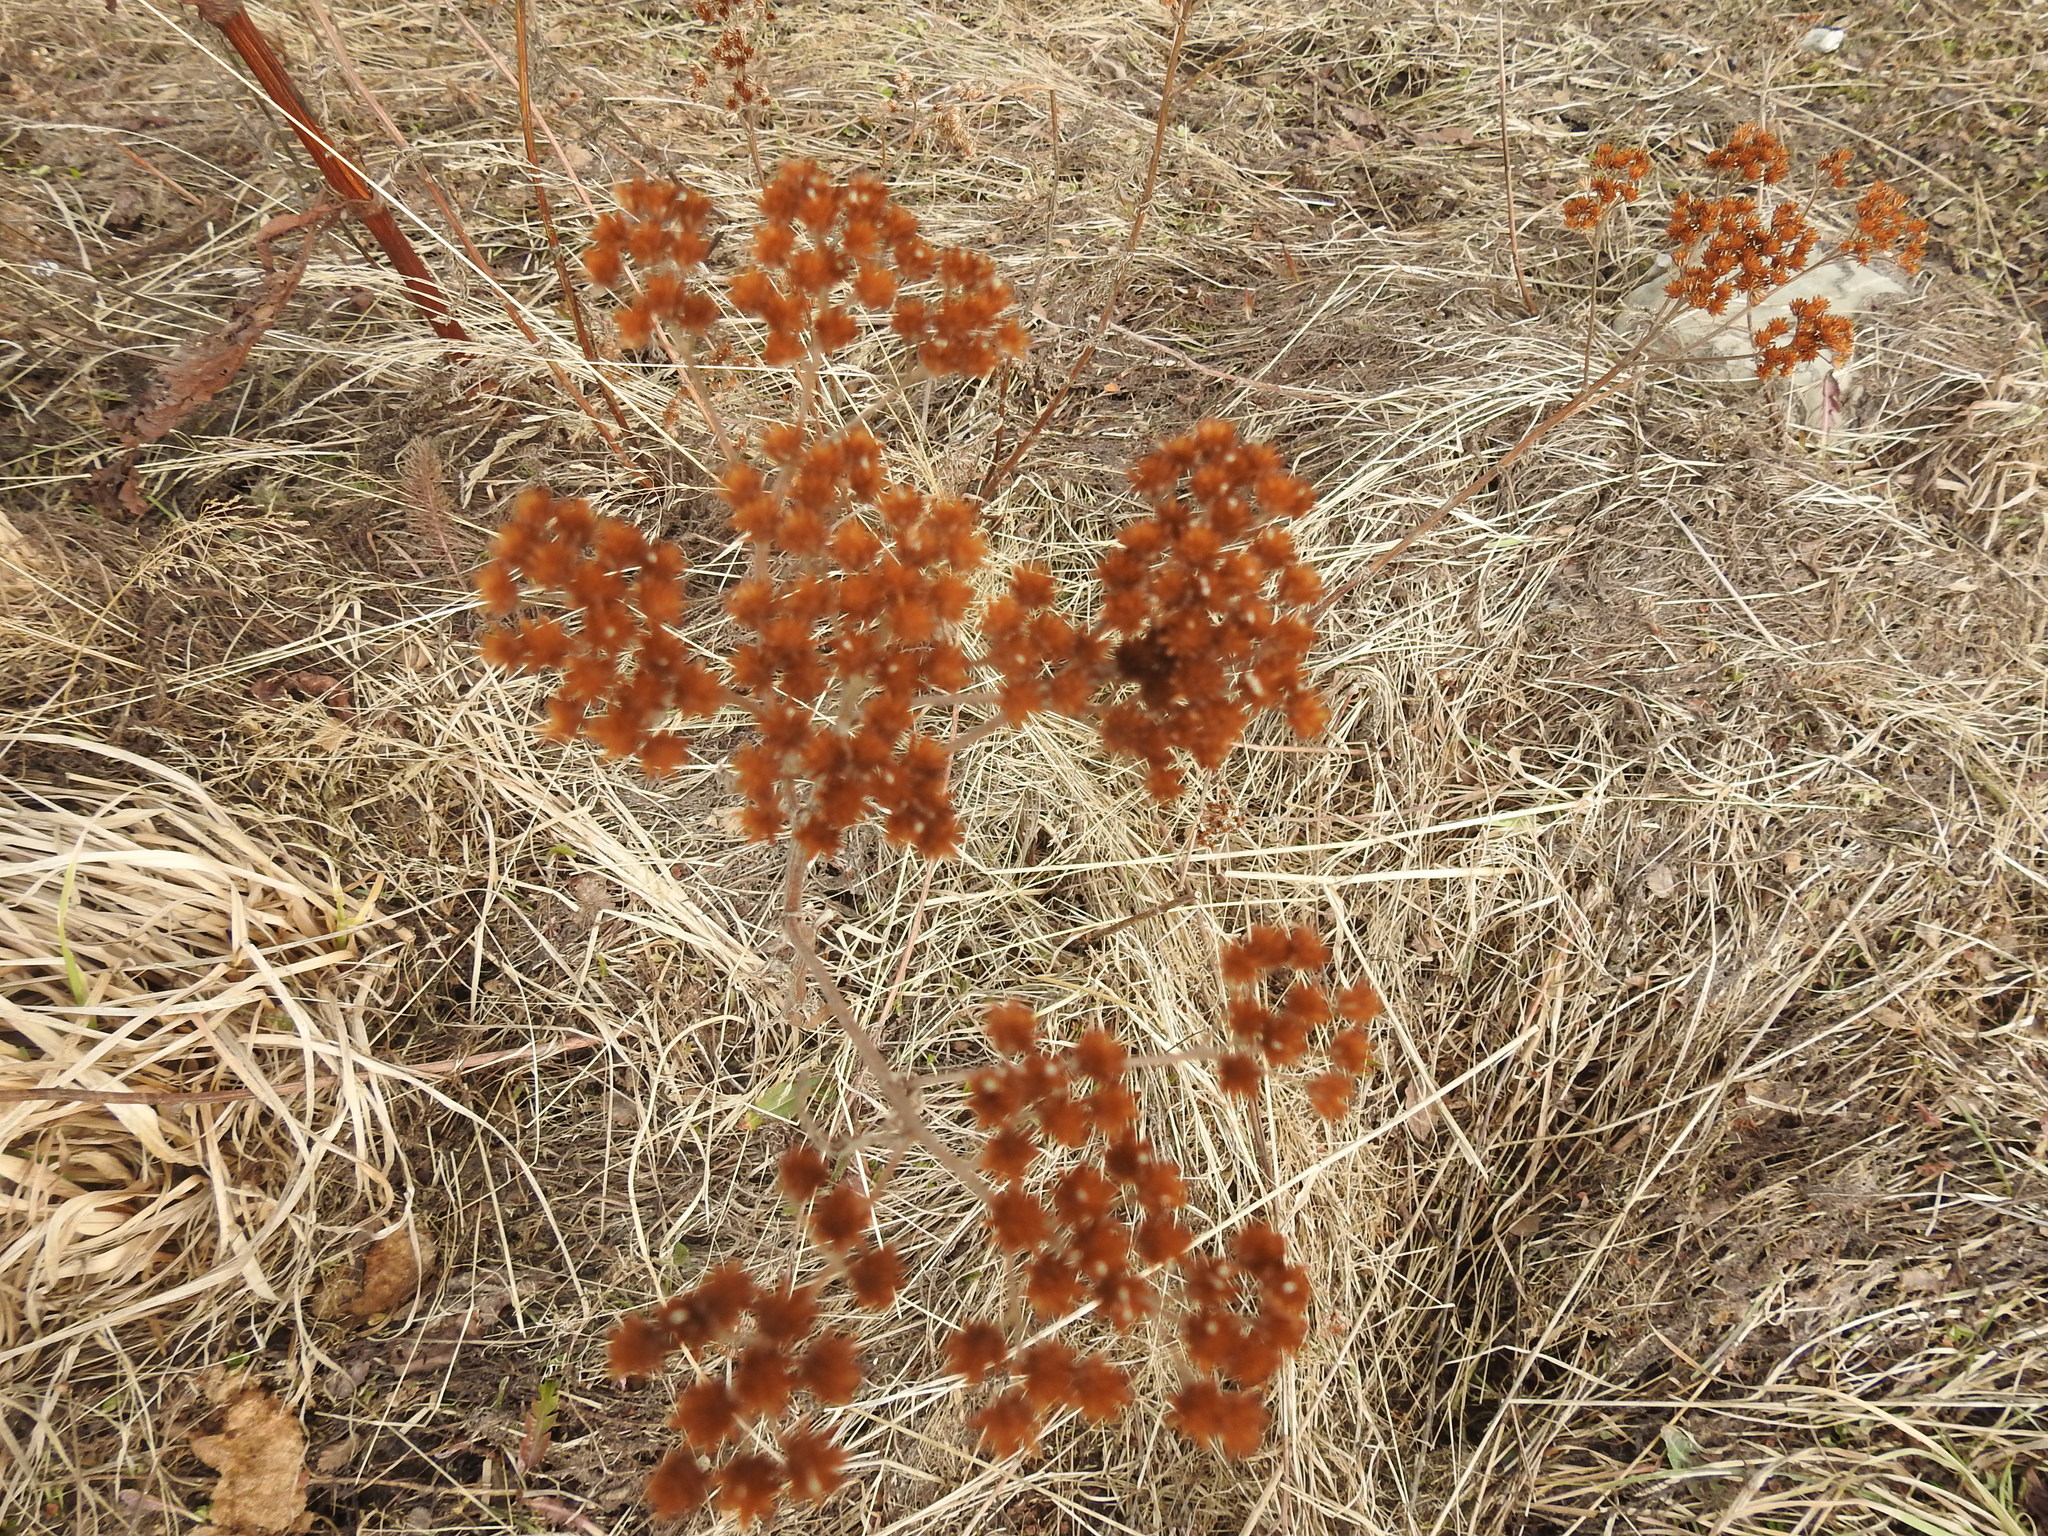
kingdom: Plantae
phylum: Tracheophyta
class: Magnoliopsida
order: Asterales
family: Asteraceae
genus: Achillea
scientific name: Achillea millefolium
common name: Yarrow
